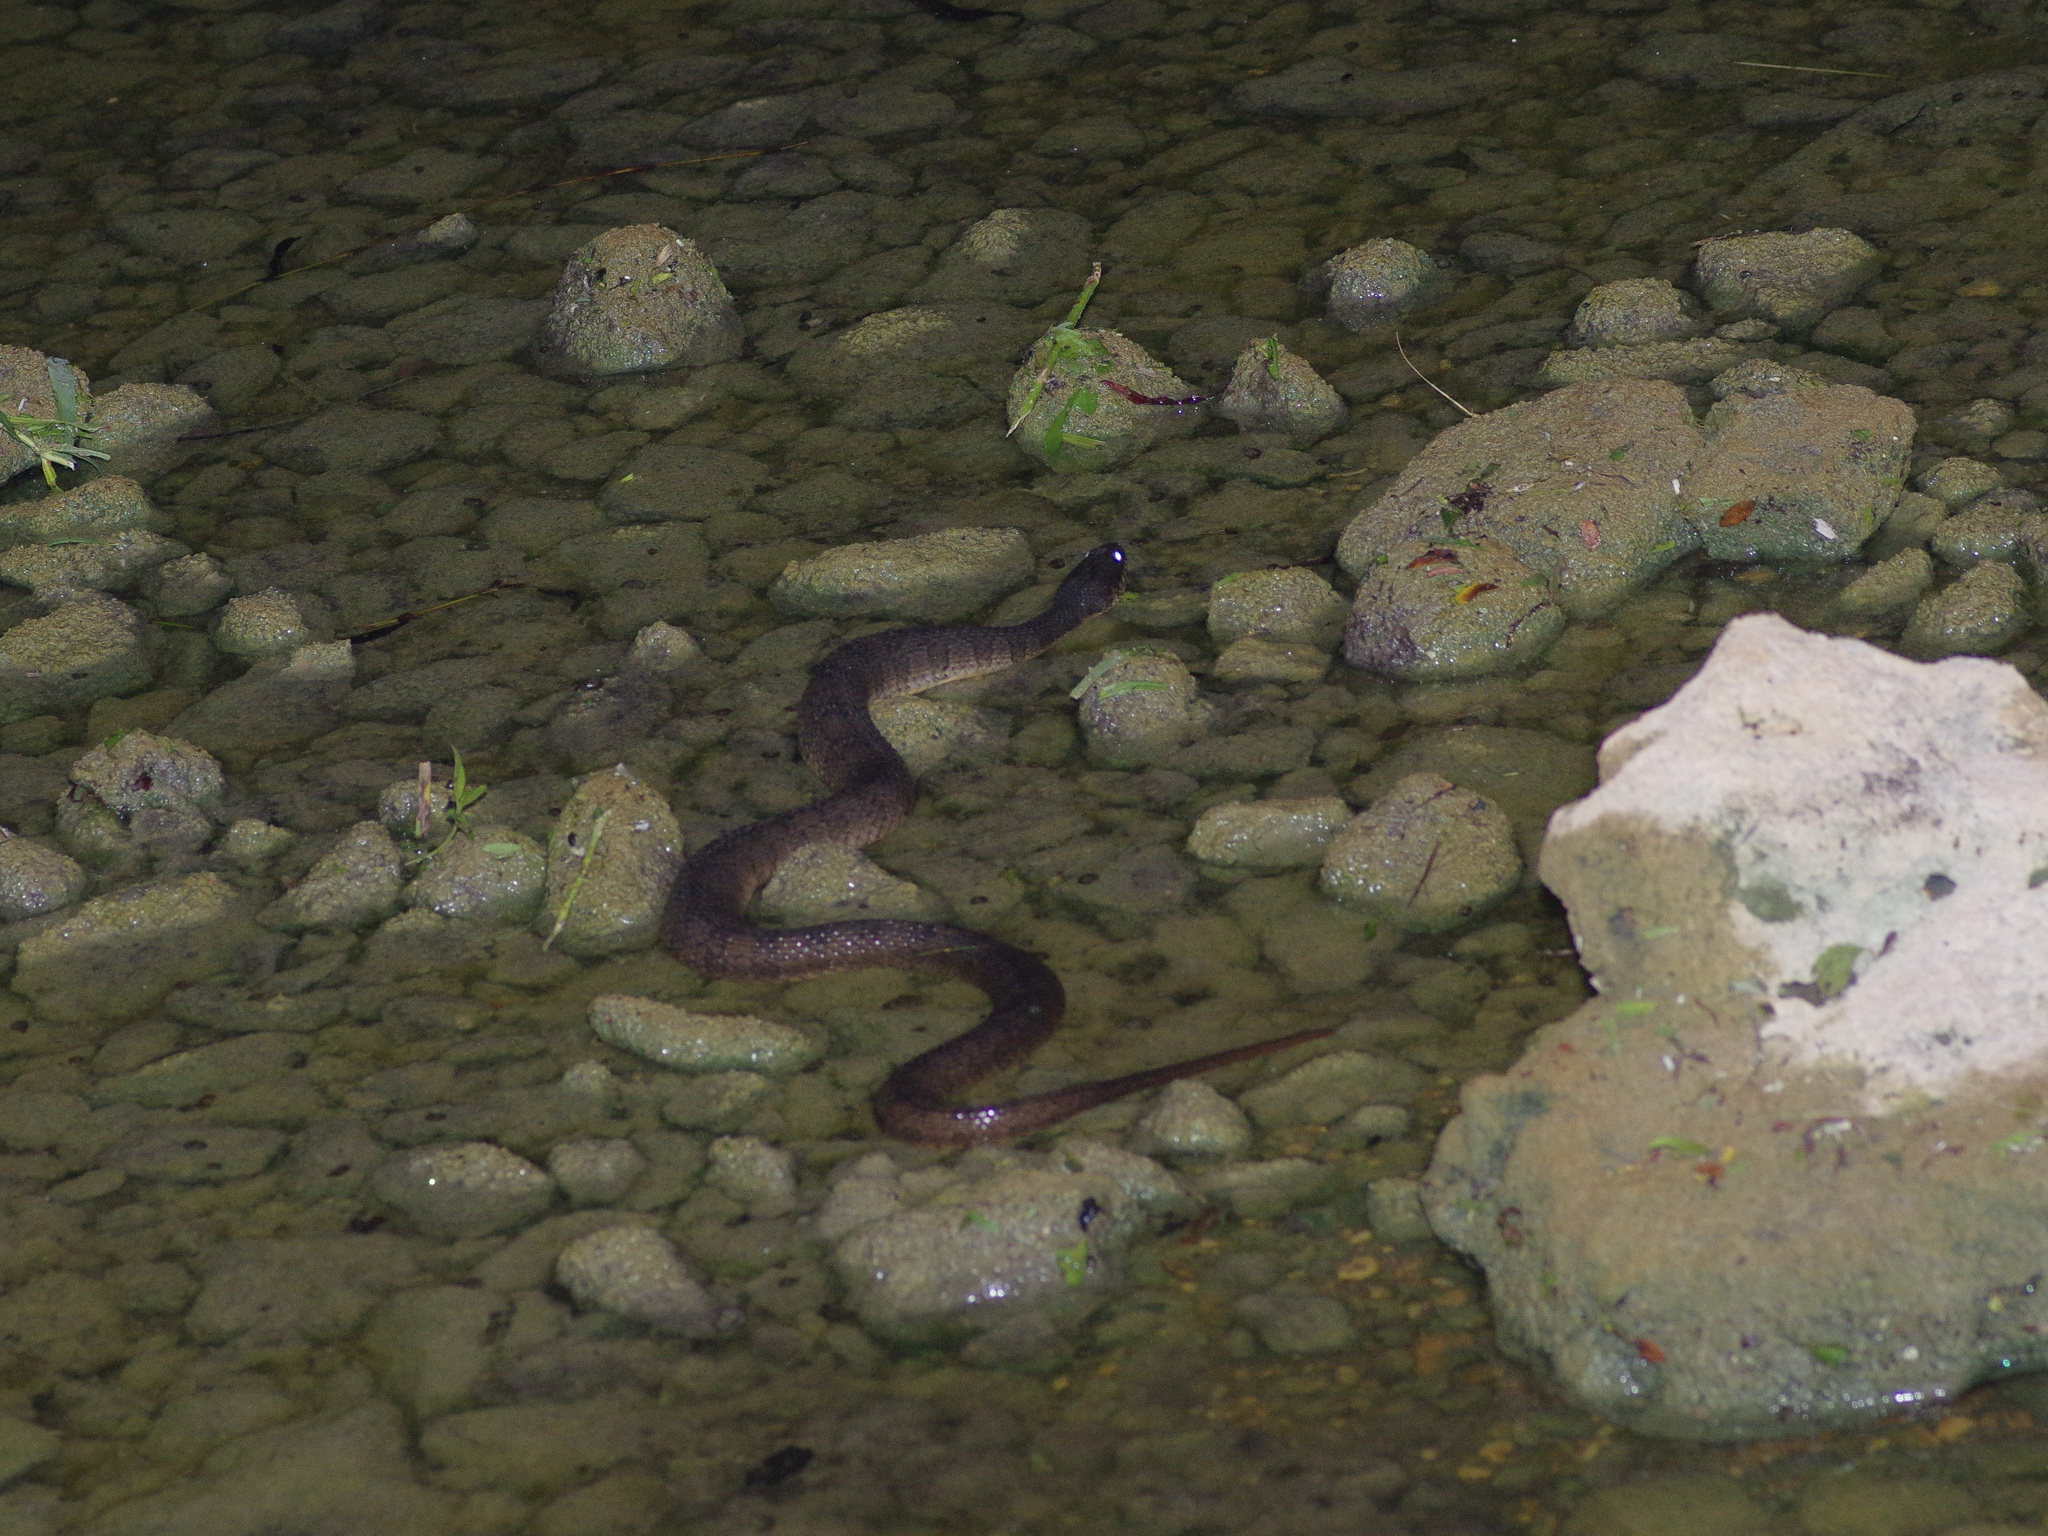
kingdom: Animalia
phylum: Chordata
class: Squamata
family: Colubridae
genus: Nerodia
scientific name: Nerodia erythrogaster
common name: Plainbelly water snake
